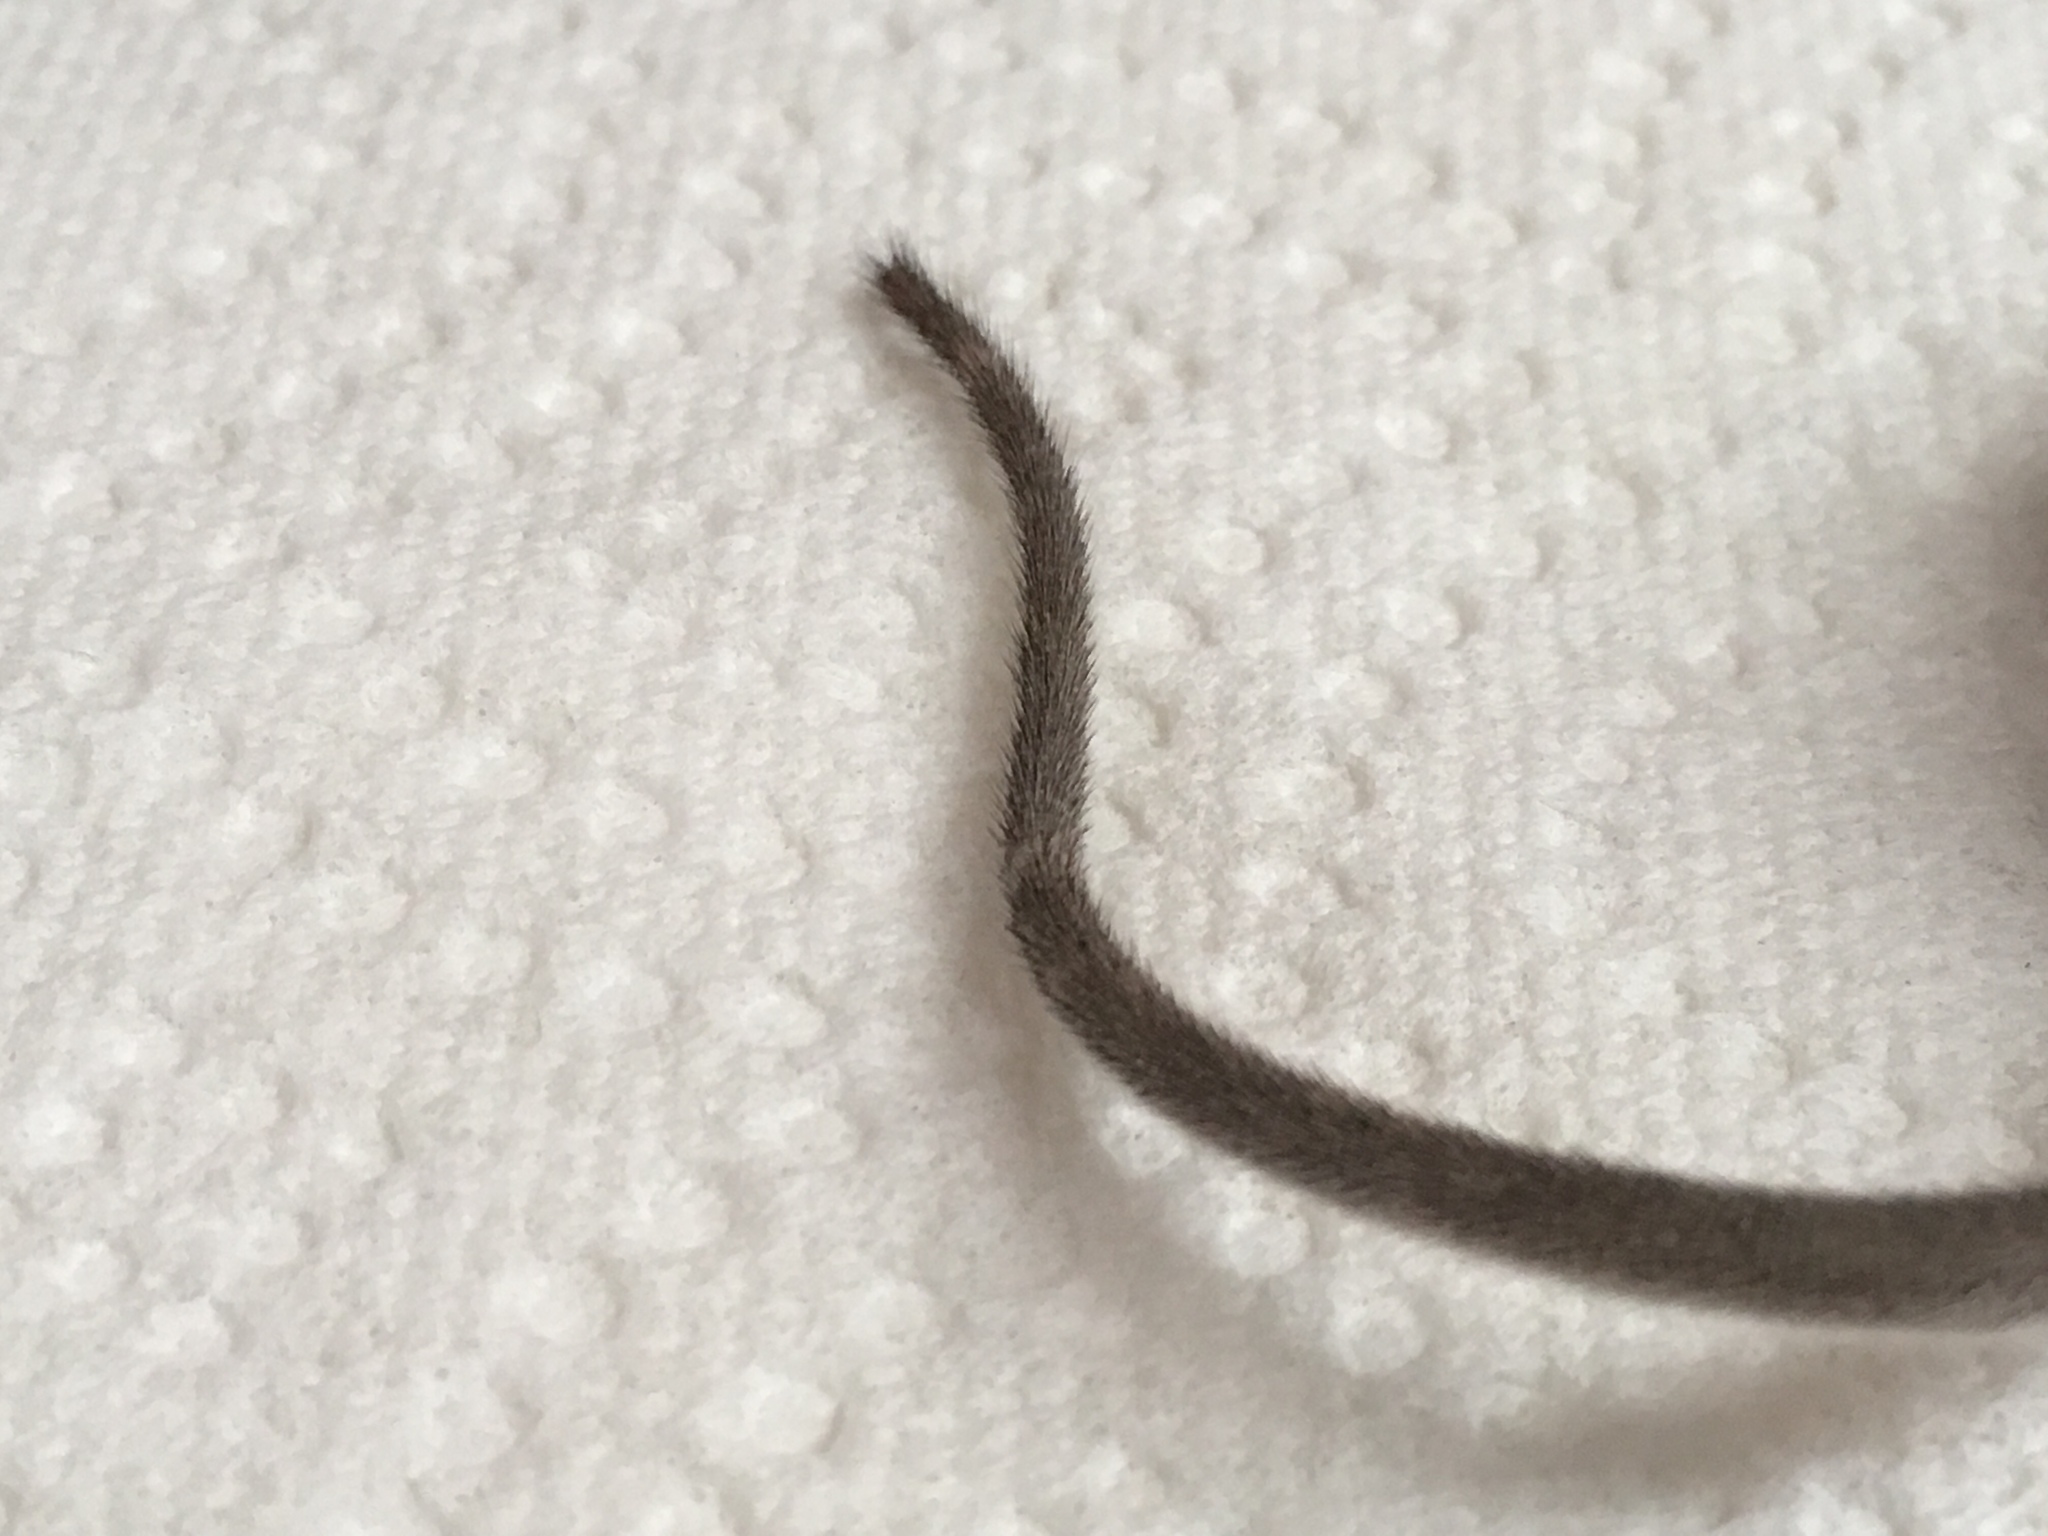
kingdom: Animalia
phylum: Chordata
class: Mammalia
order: Rodentia
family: Cricetidae
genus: Peromyscus
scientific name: Peromyscus eremicus
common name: Cactus deermouse
